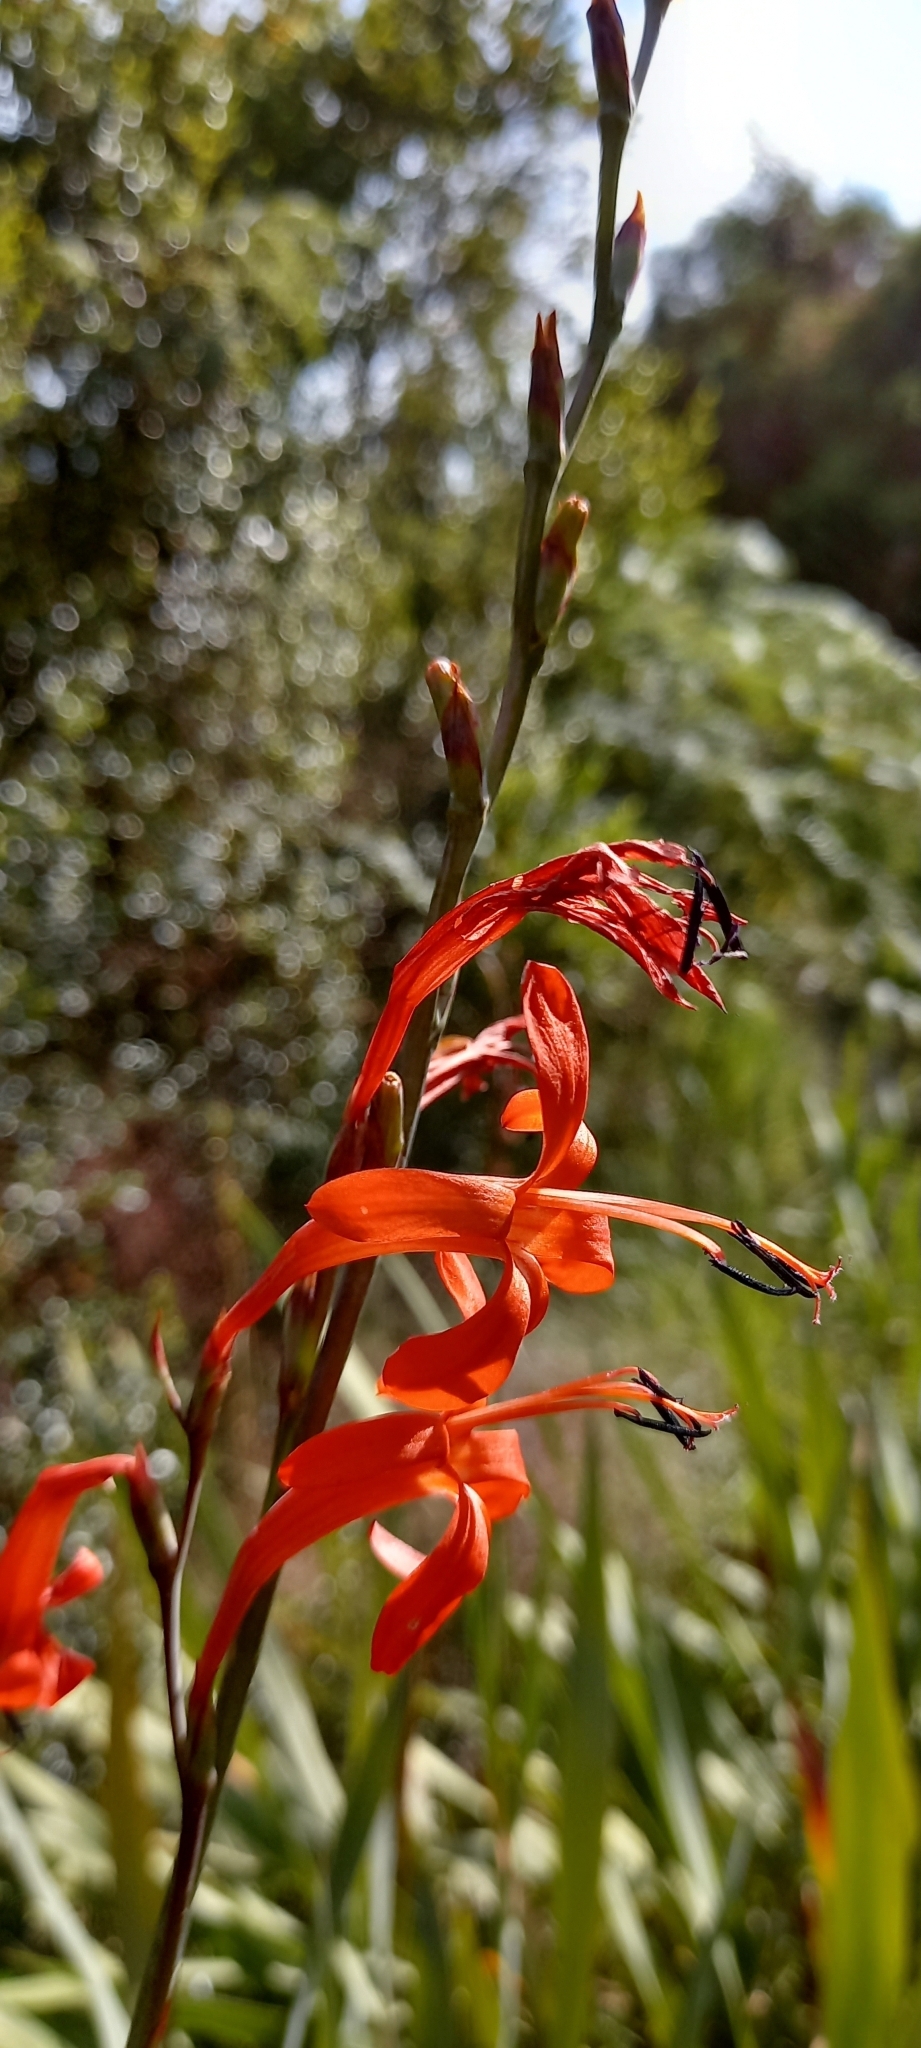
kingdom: Plantae
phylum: Tracheophyta
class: Liliopsida
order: Asparagales
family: Iridaceae
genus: Watsonia
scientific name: Watsonia angusta
